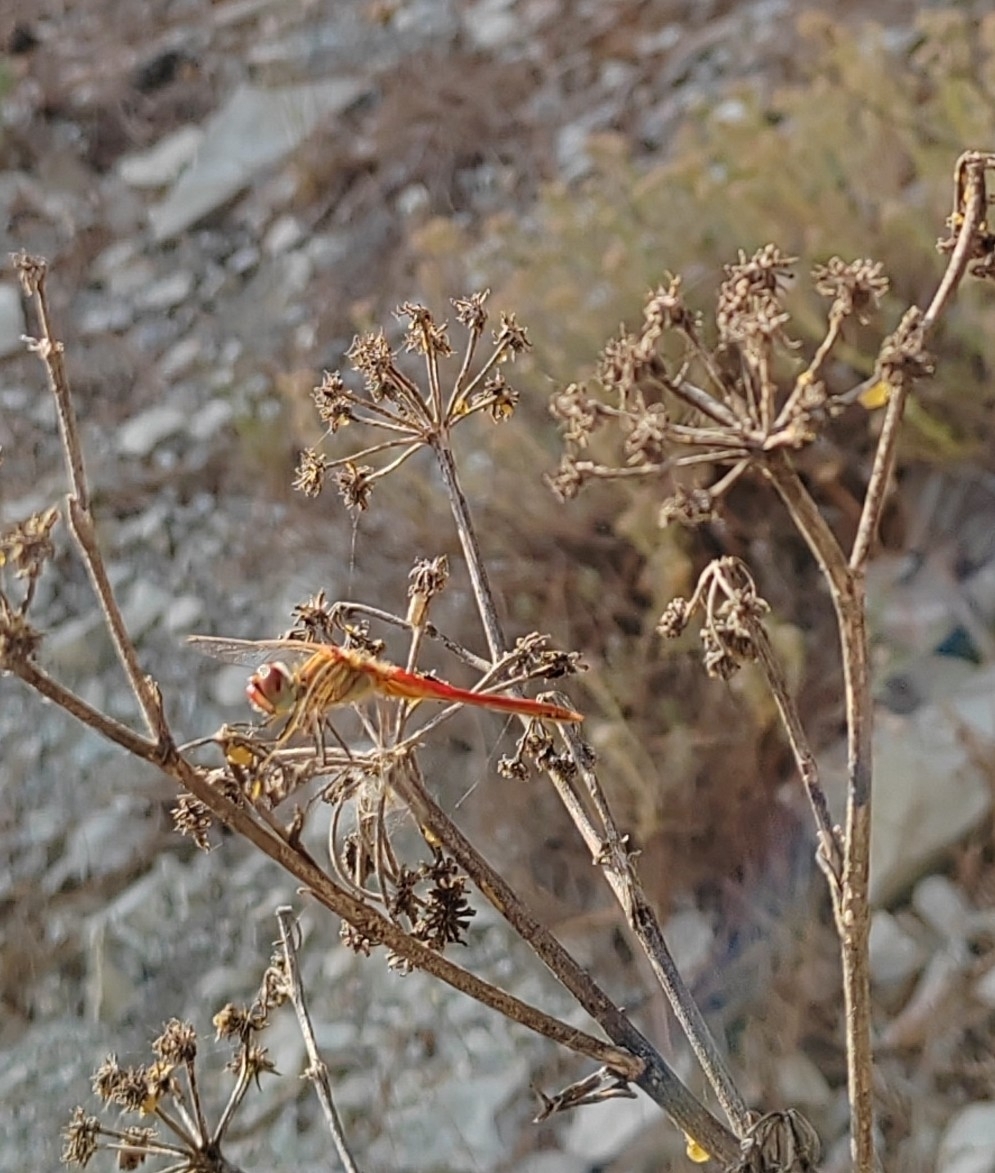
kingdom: Animalia
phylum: Arthropoda
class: Insecta
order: Odonata
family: Libellulidae
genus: Sympetrum
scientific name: Sympetrum fonscolombii
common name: Red-veined darter
